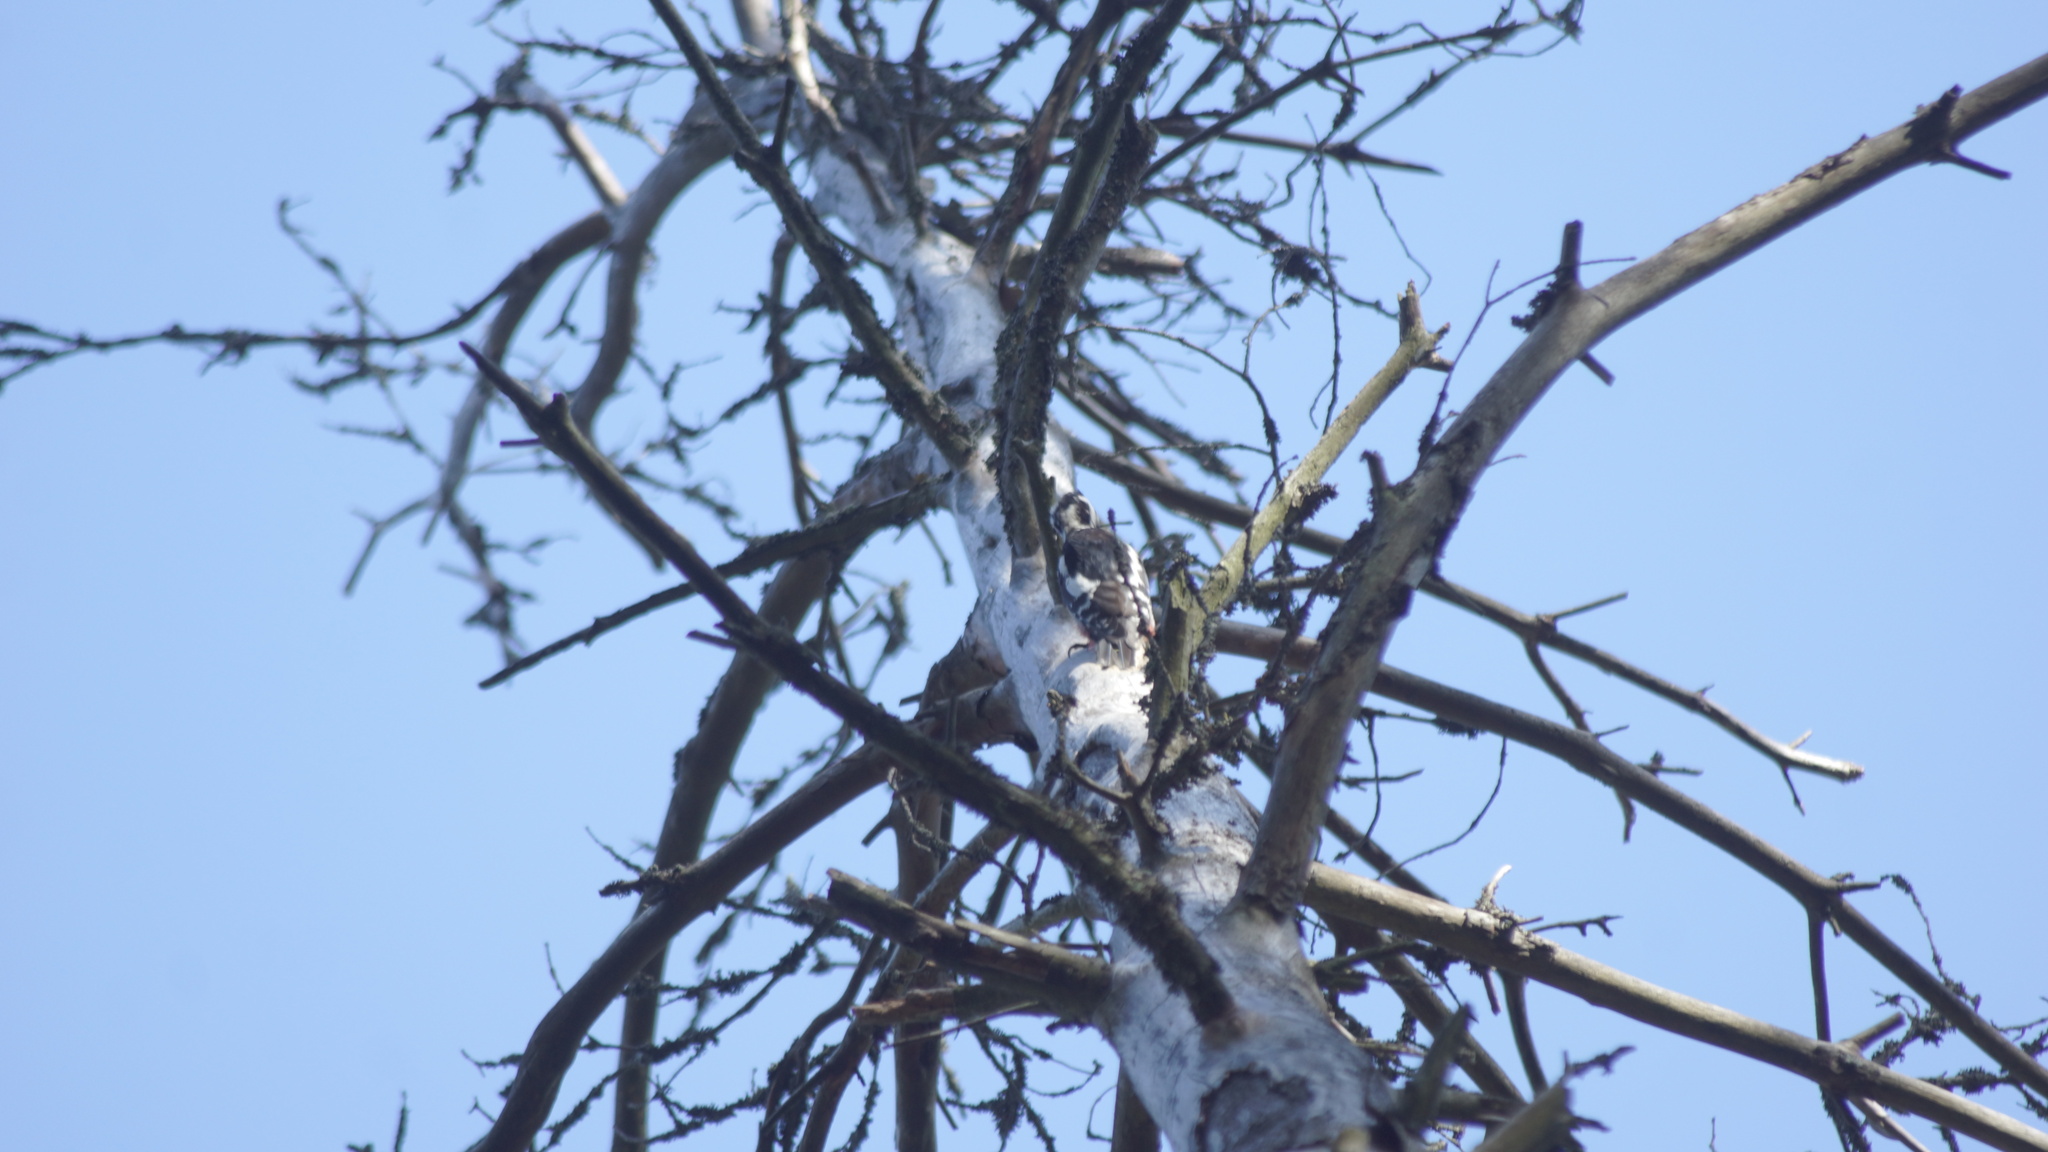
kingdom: Animalia
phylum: Chordata
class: Aves
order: Piciformes
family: Picidae
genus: Dendrocopos
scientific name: Dendrocopos major
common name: Great spotted woodpecker
